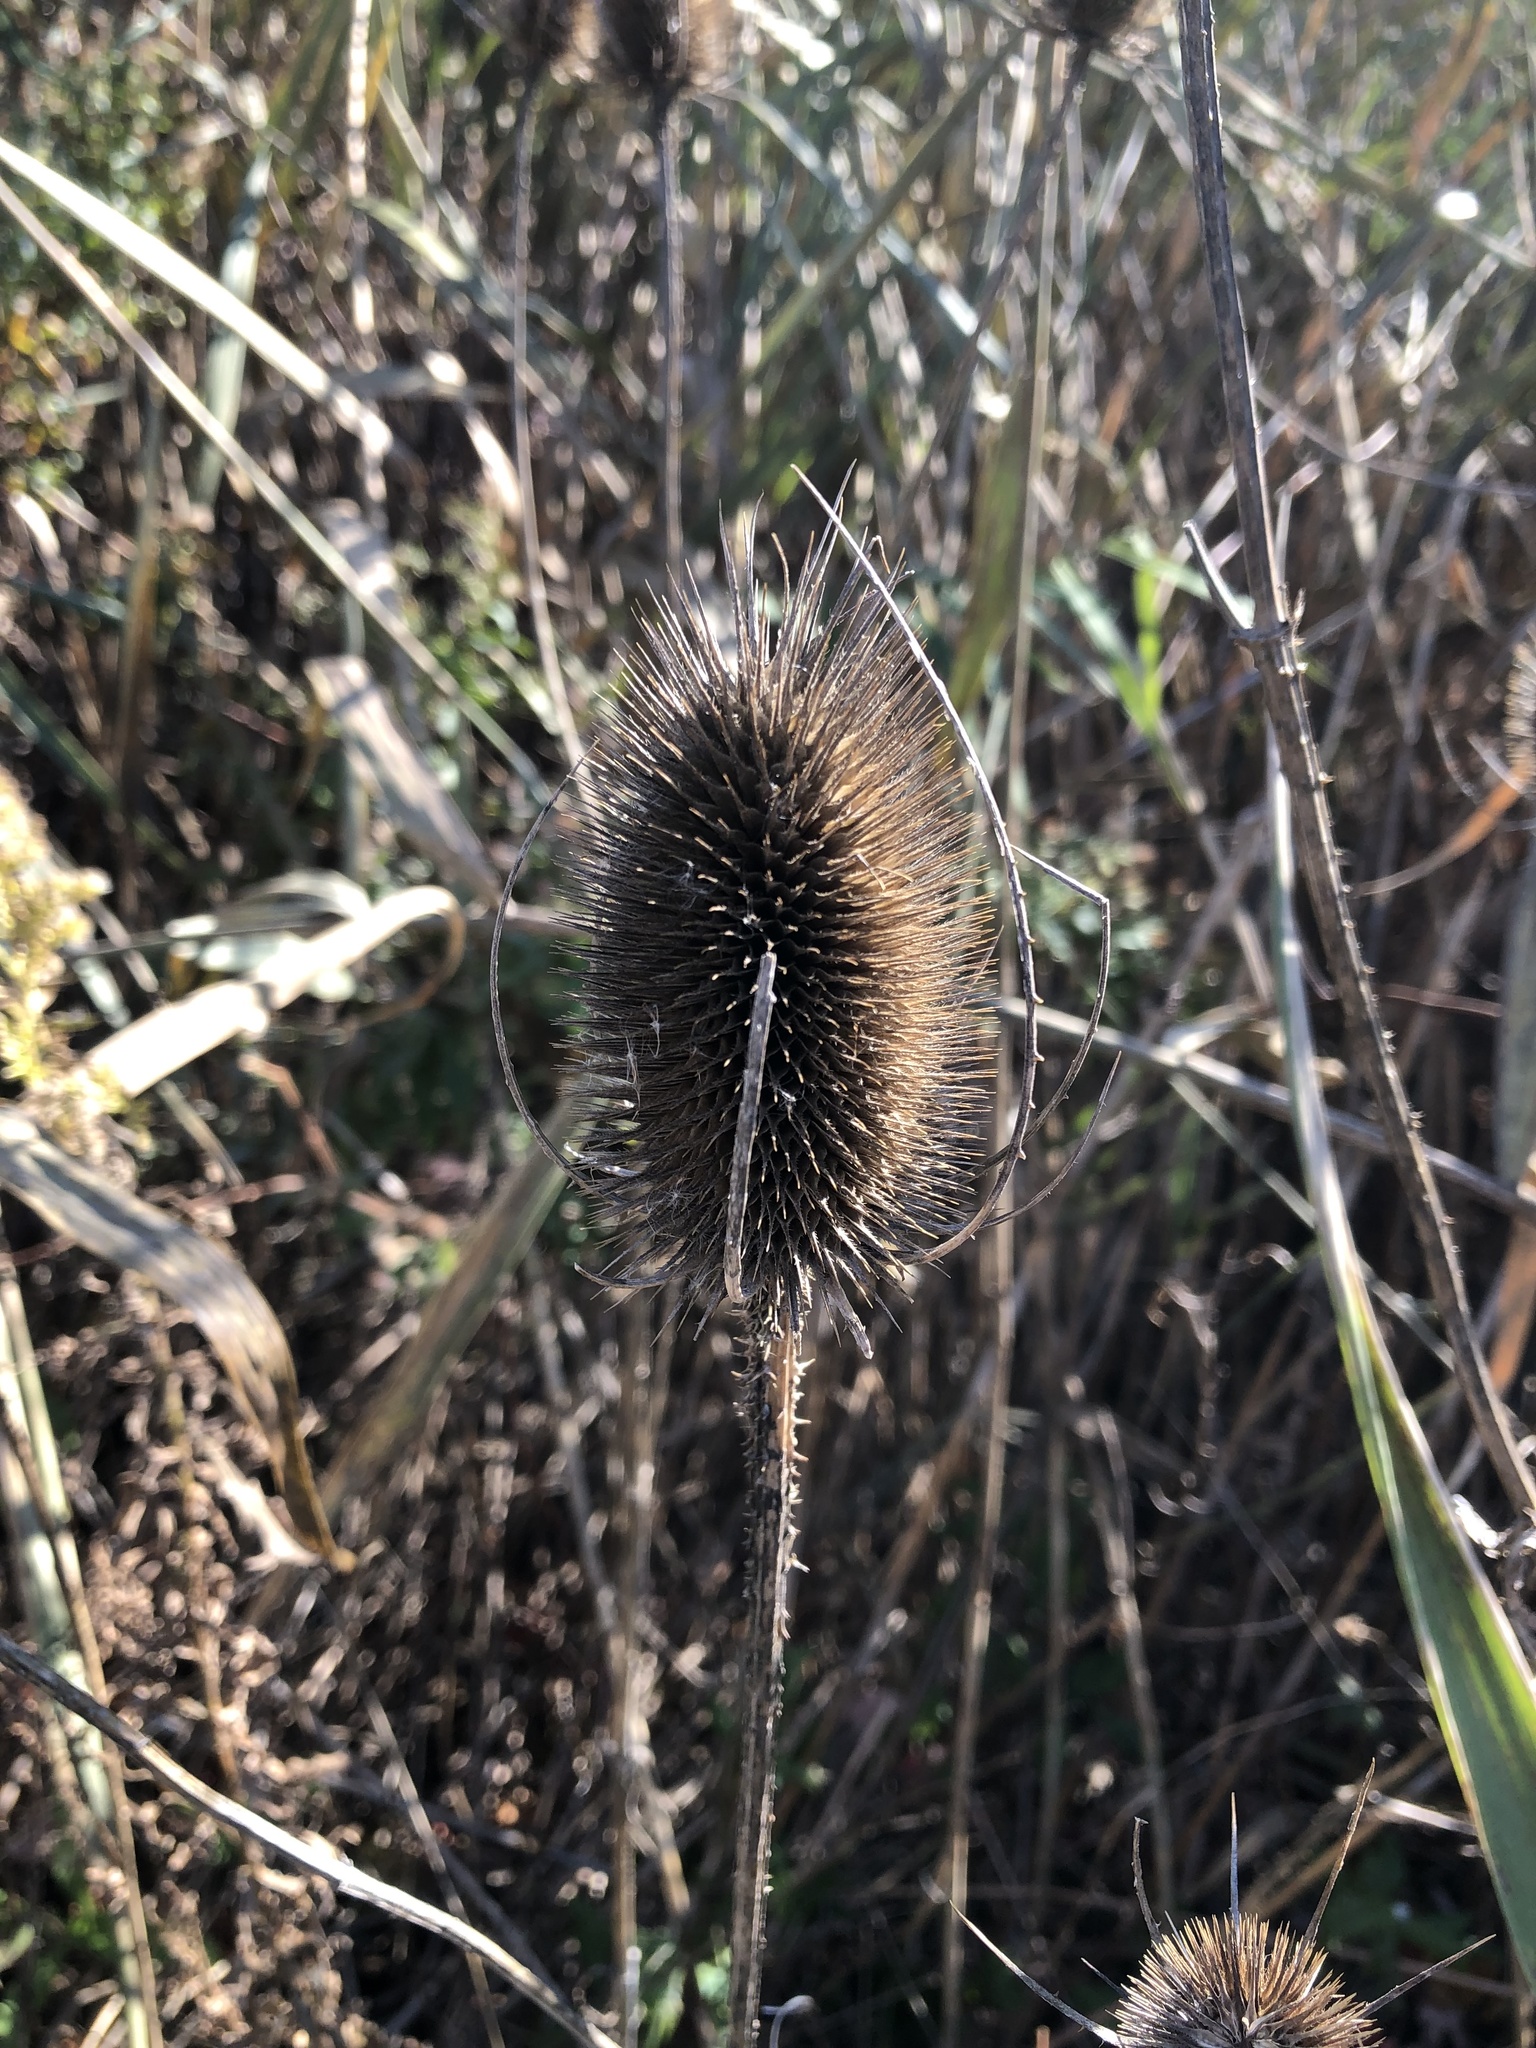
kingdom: Plantae
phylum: Tracheophyta
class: Magnoliopsida
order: Dipsacales
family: Caprifoliaceae
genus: Dipsacus
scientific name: Dipsacus fullonum
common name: Teasel
